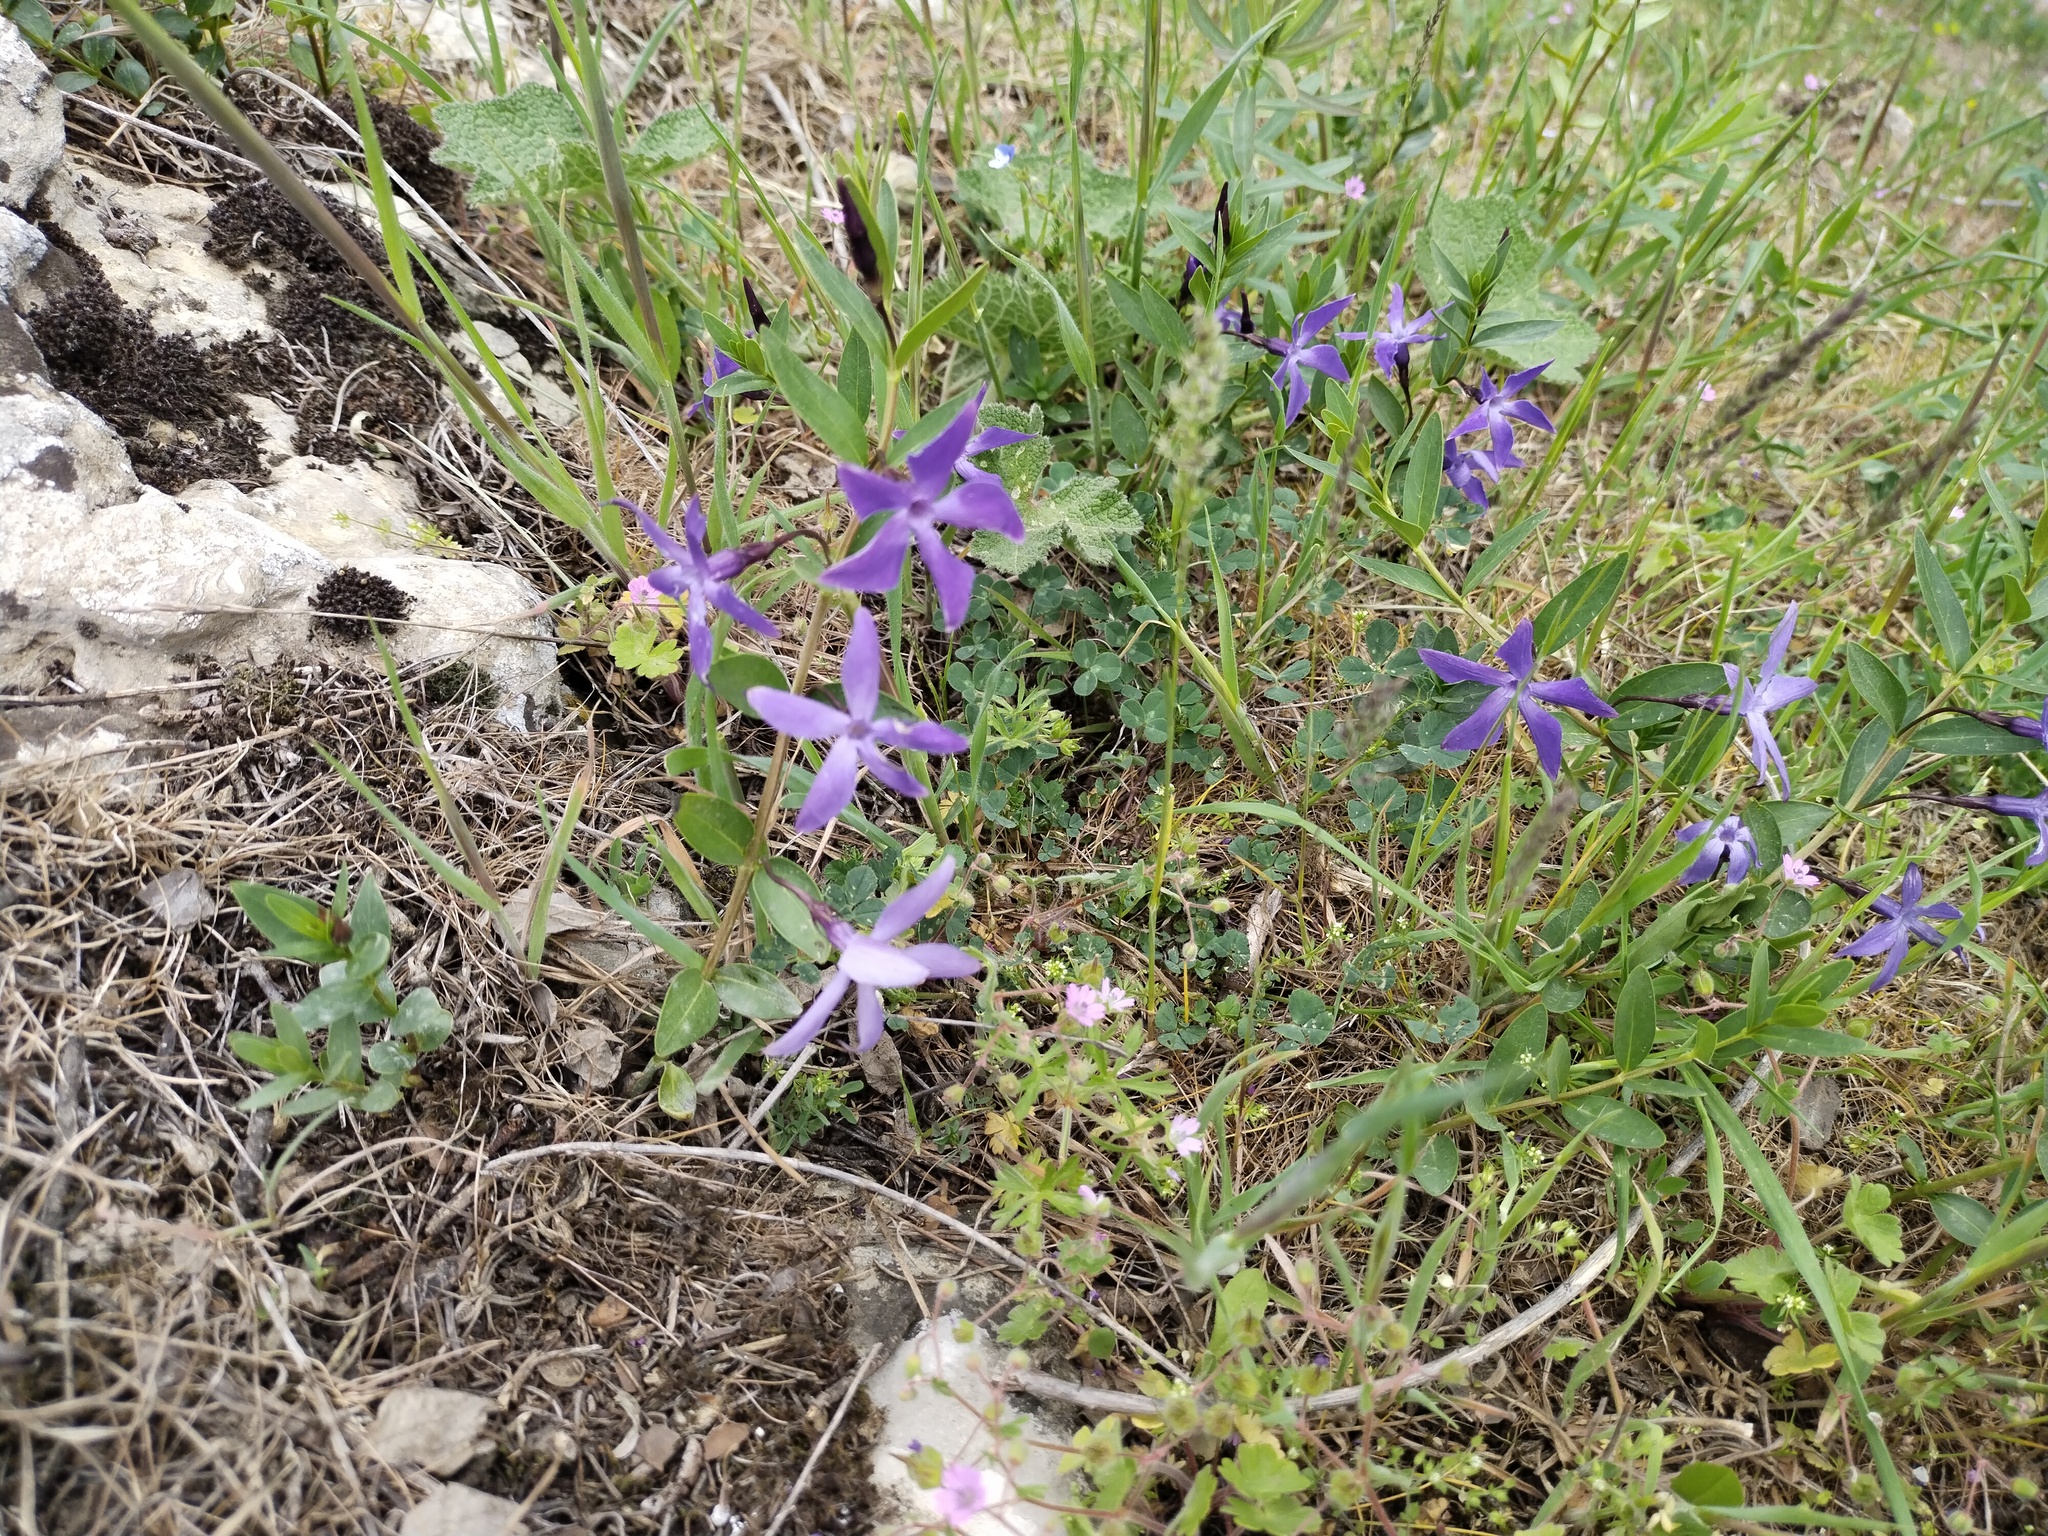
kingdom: Plantae
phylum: Tracheophyta
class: Magnoliopsida
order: Gentianales
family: Apocynaceae
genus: Vinca
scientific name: Vinca herbacea
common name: Herbaceous periwinkle
